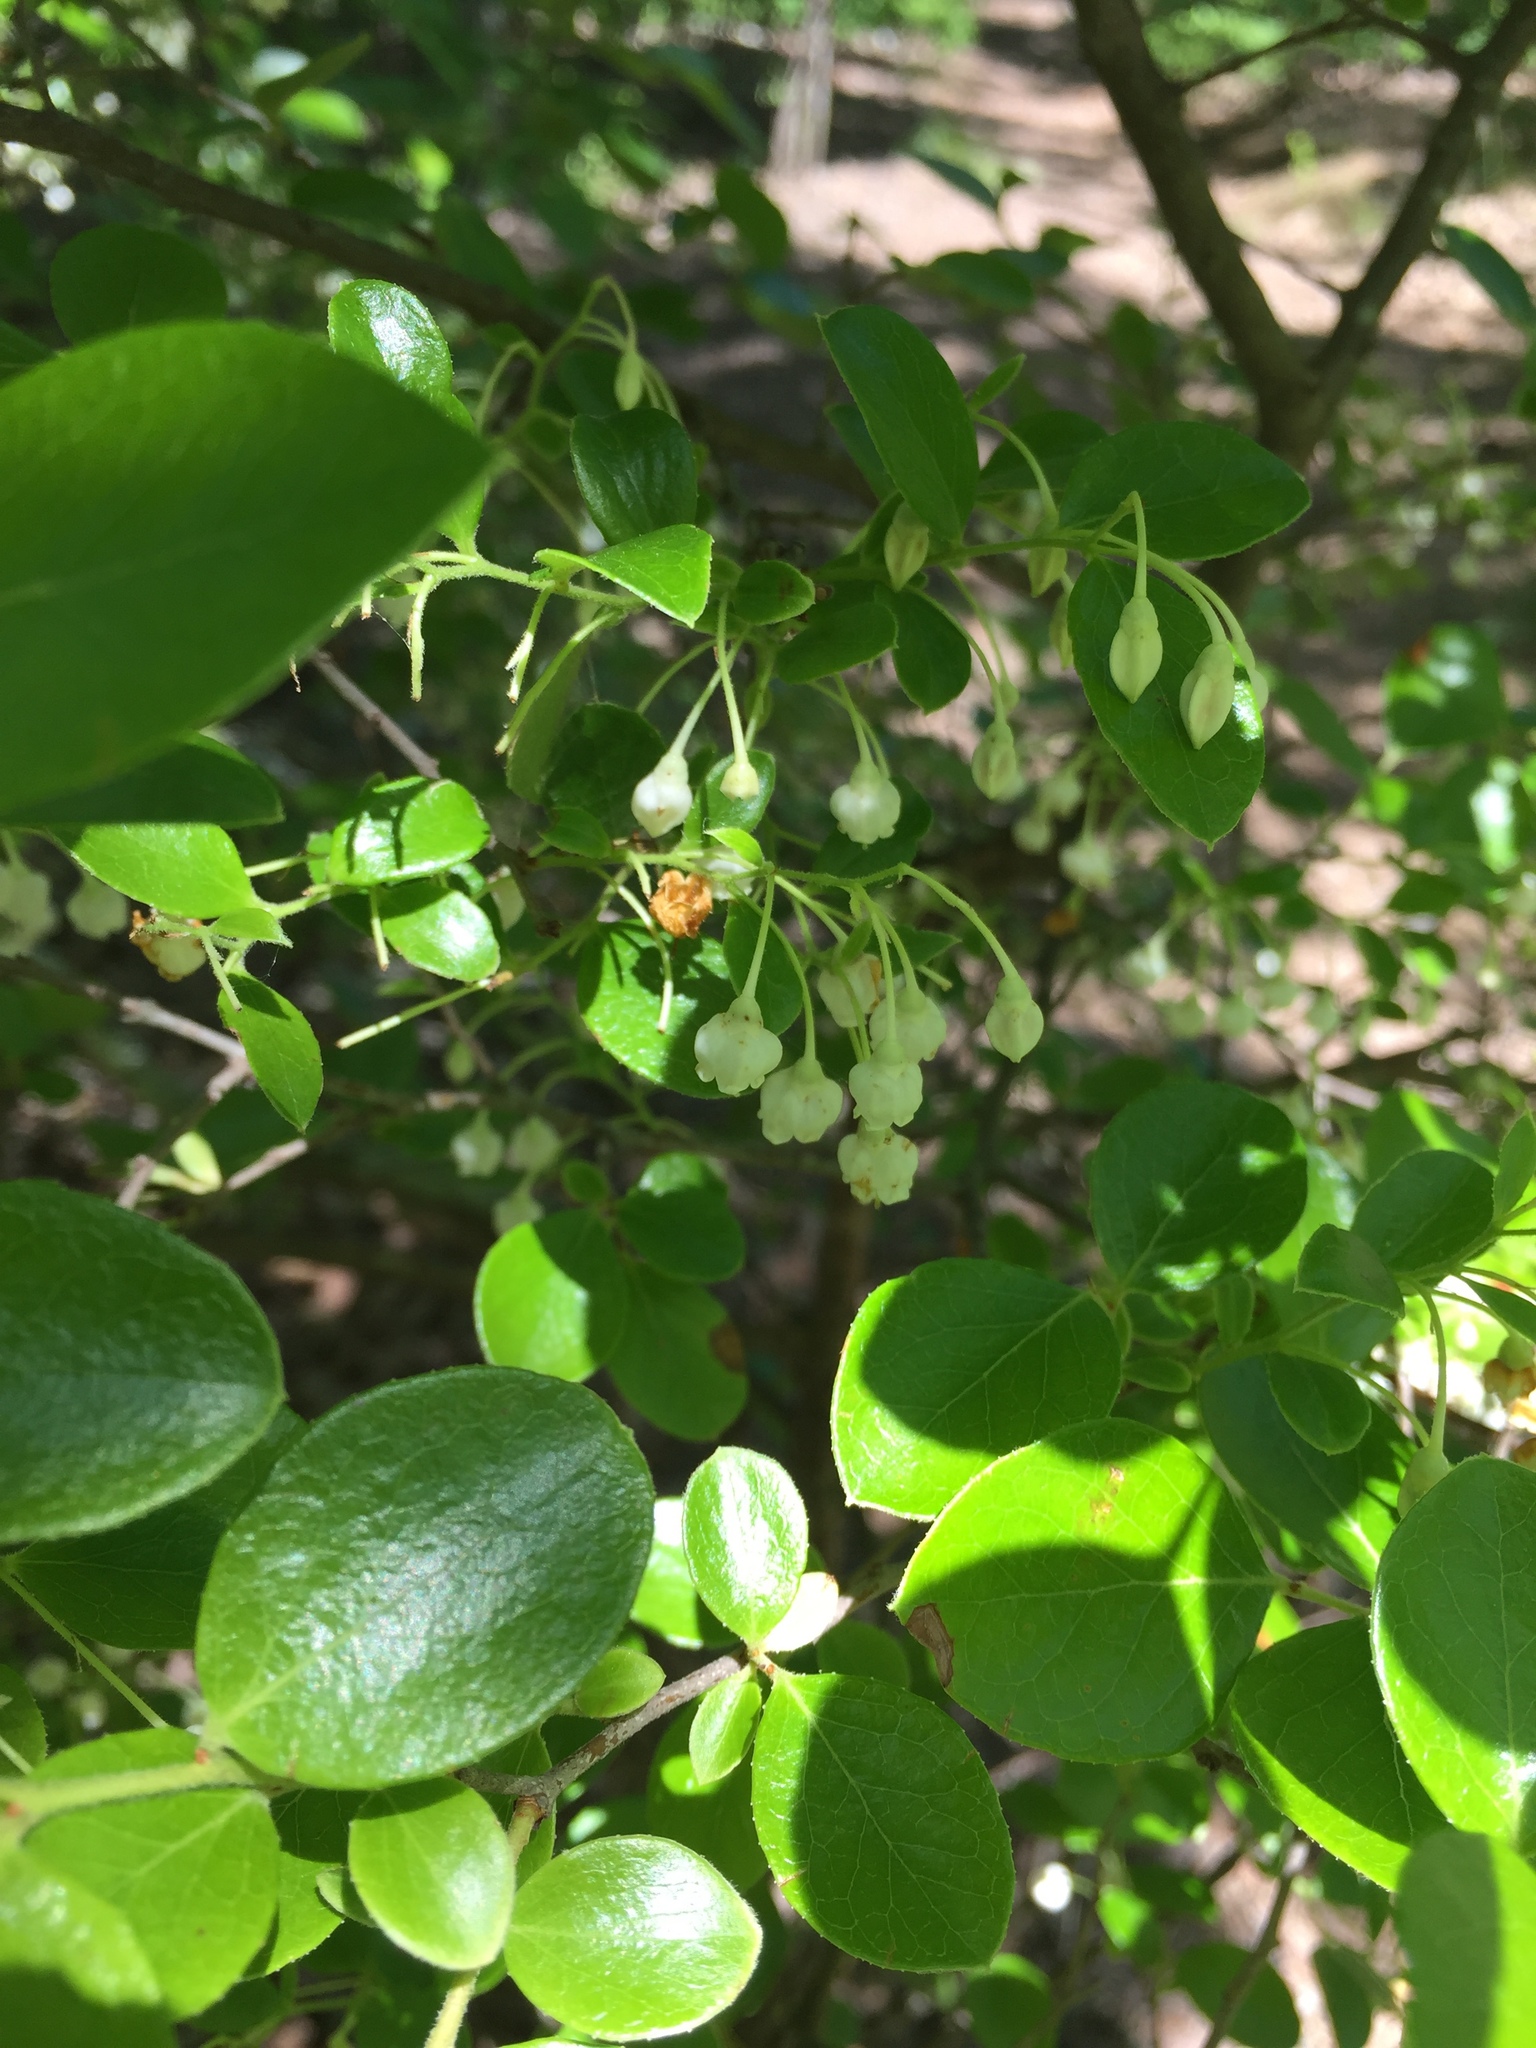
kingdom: Plantae
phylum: Tracheophyta
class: Magnoliopsida
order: Ericales
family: Ericaceae
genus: Vaccinium
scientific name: Vaccinium arboreum
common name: Farkleberry
